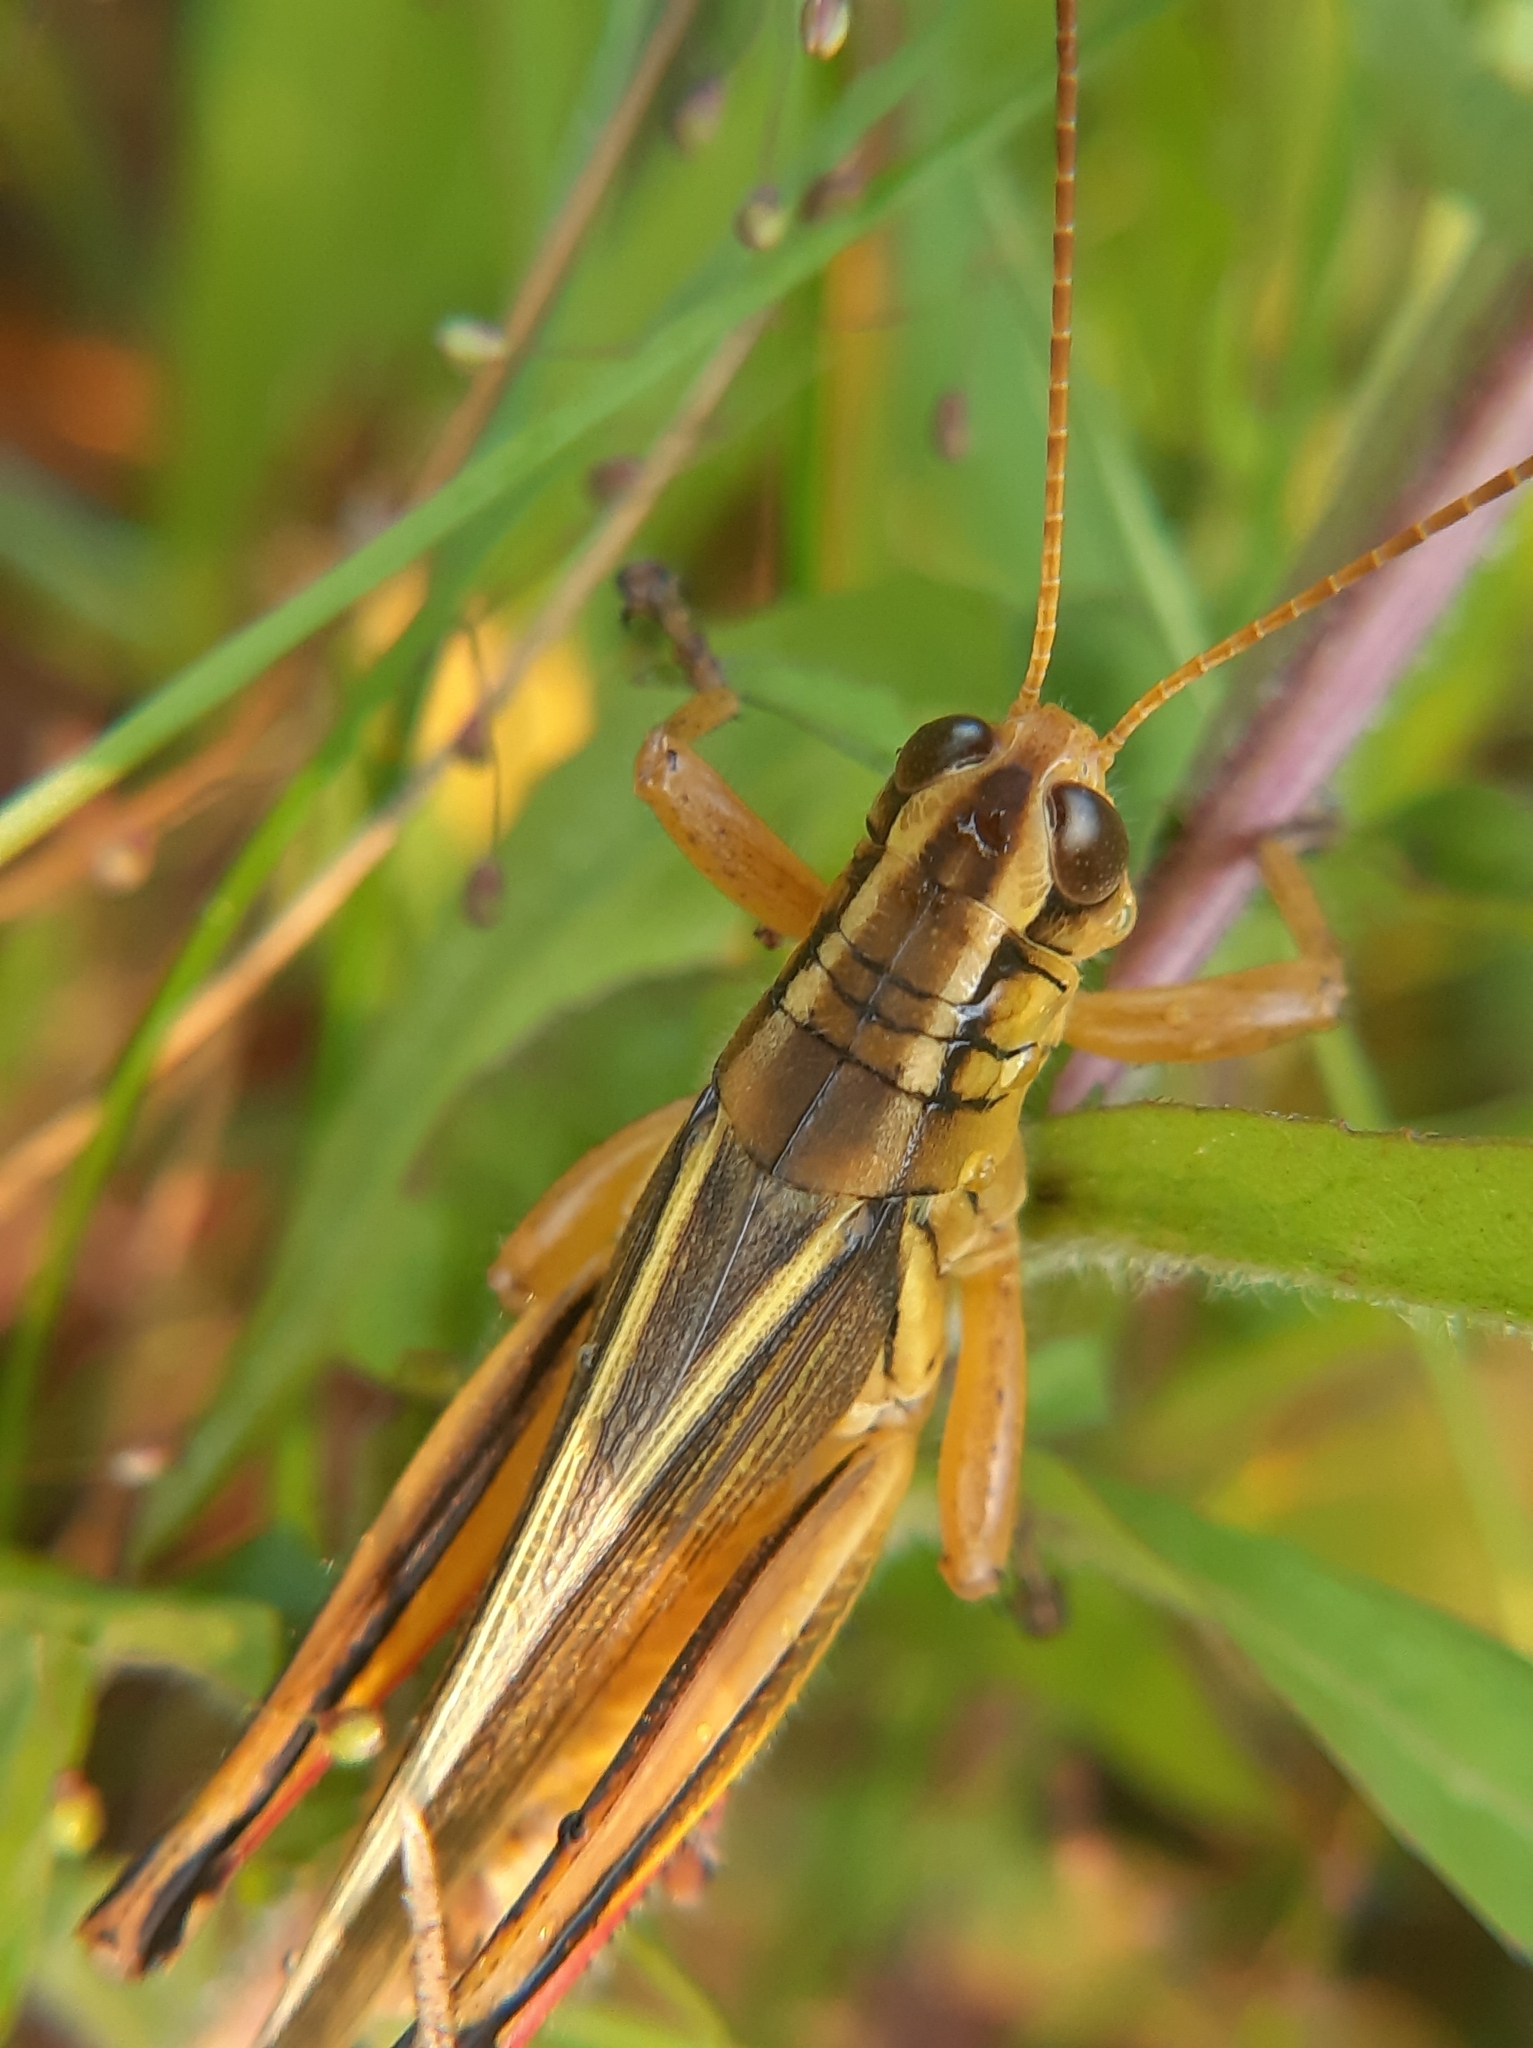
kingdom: Animalia
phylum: Arthropoda
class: Insecta
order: Orthoptera
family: Acrididae
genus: Melanoplus
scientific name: Melanoplus bivittatus
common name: Two-striped grasshopper
